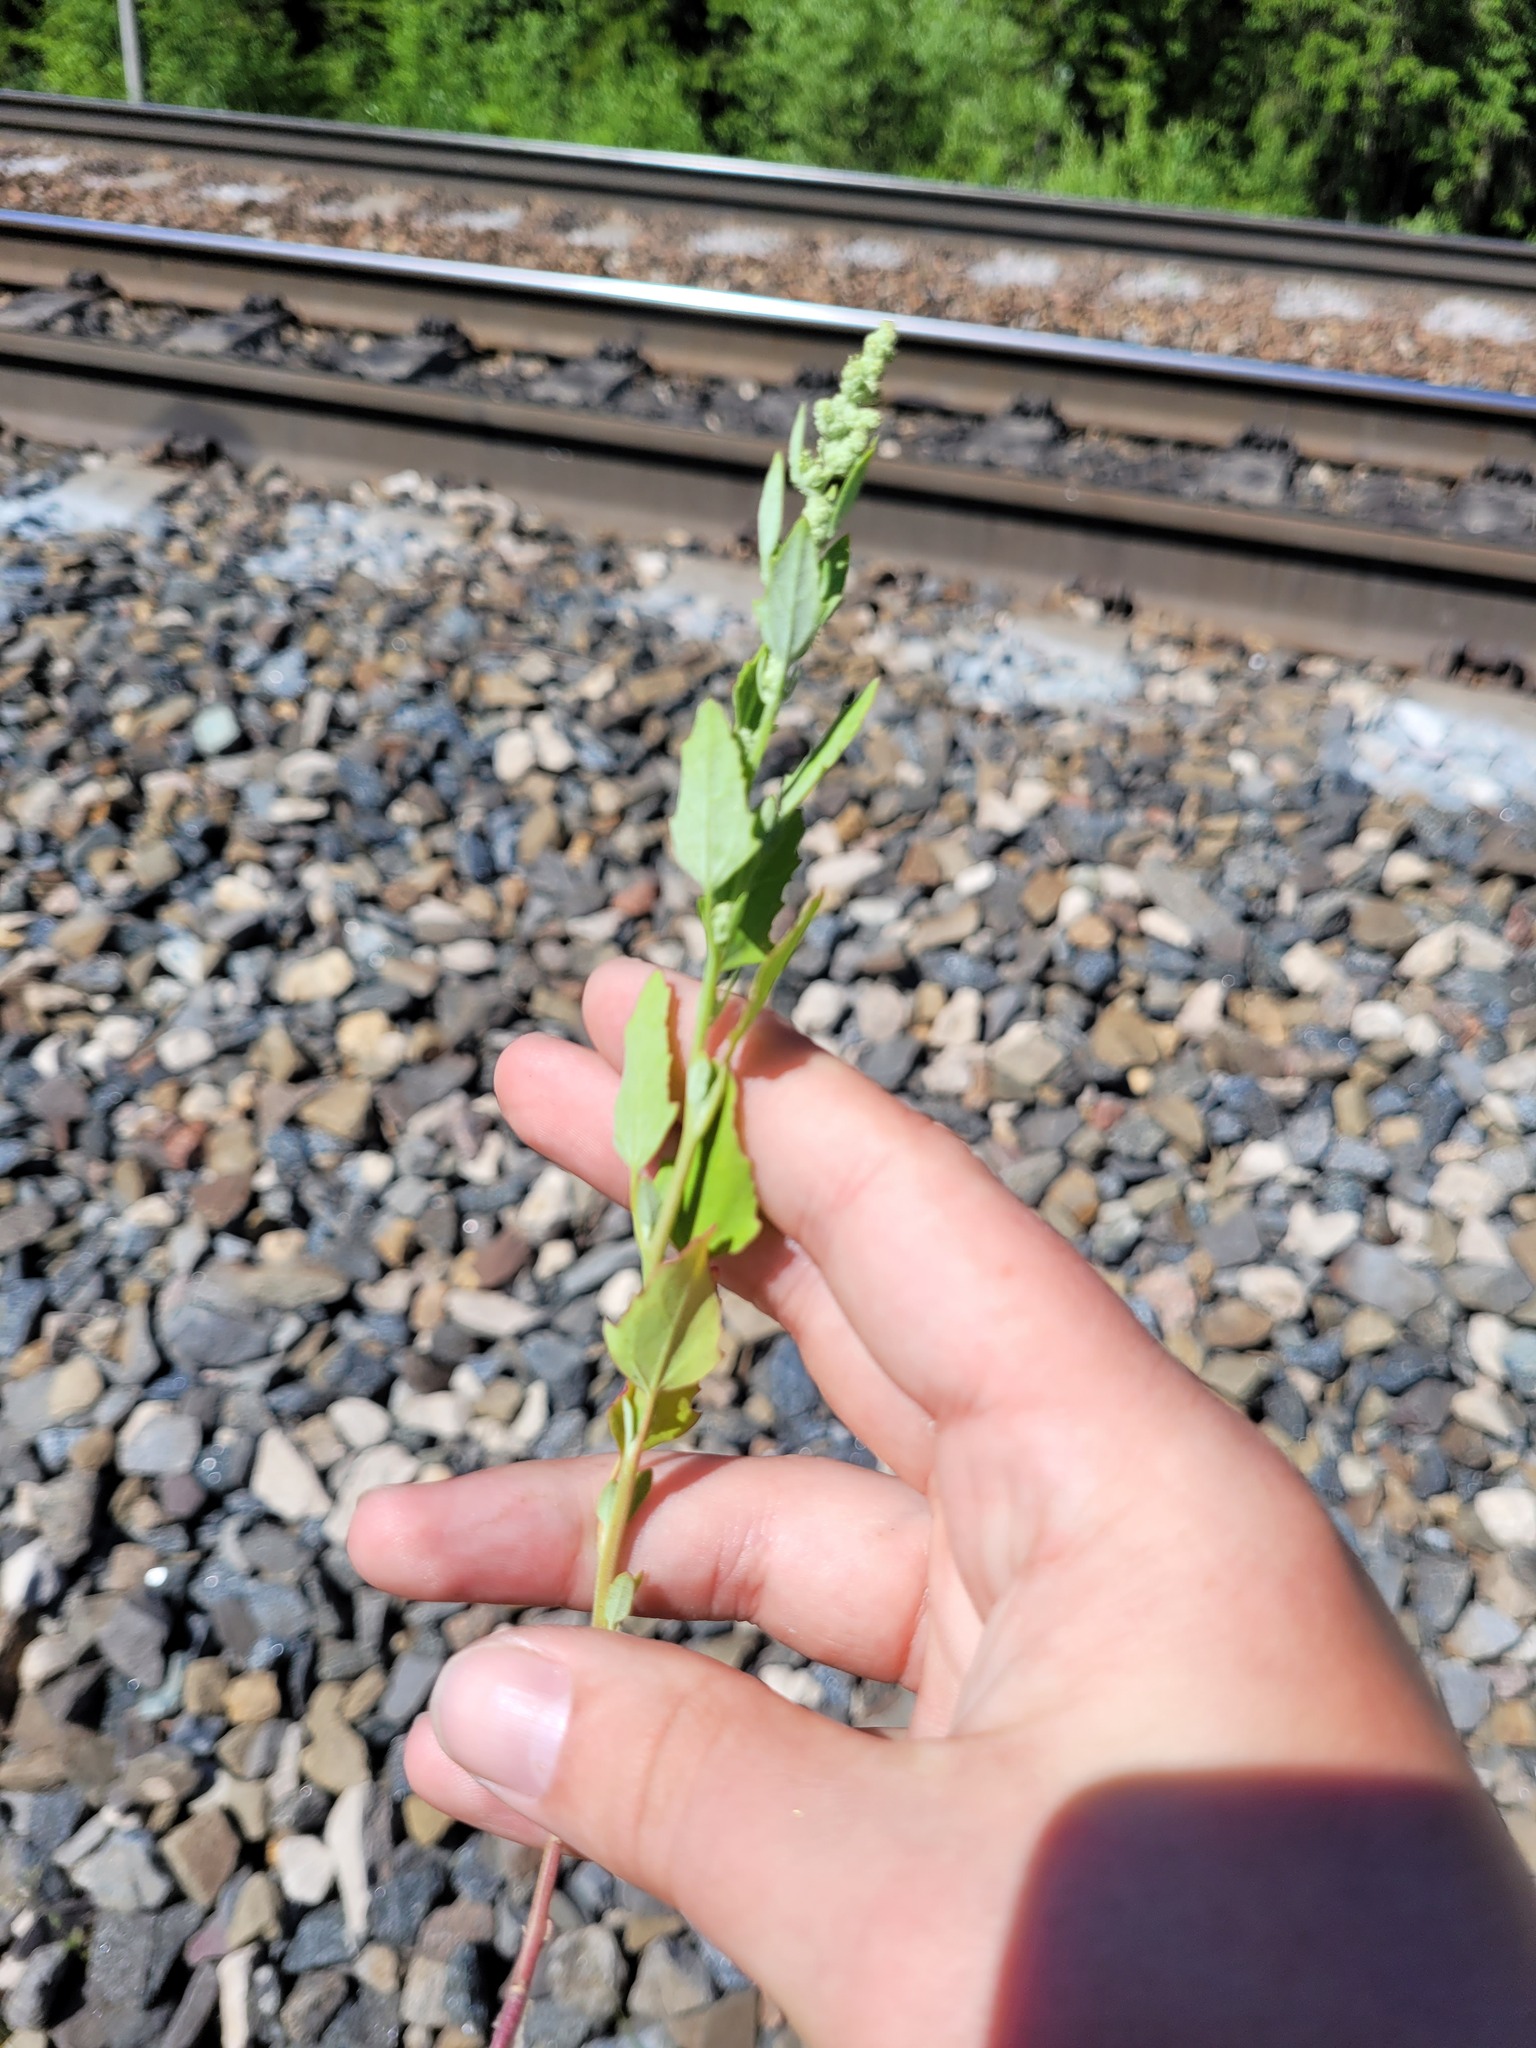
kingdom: Plantae
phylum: Tracheophyta
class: Magnoliopsida
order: Caryophyllales
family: Amaranthaceae
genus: Chenopodium
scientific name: Chenopodium album
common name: Fat-hen
